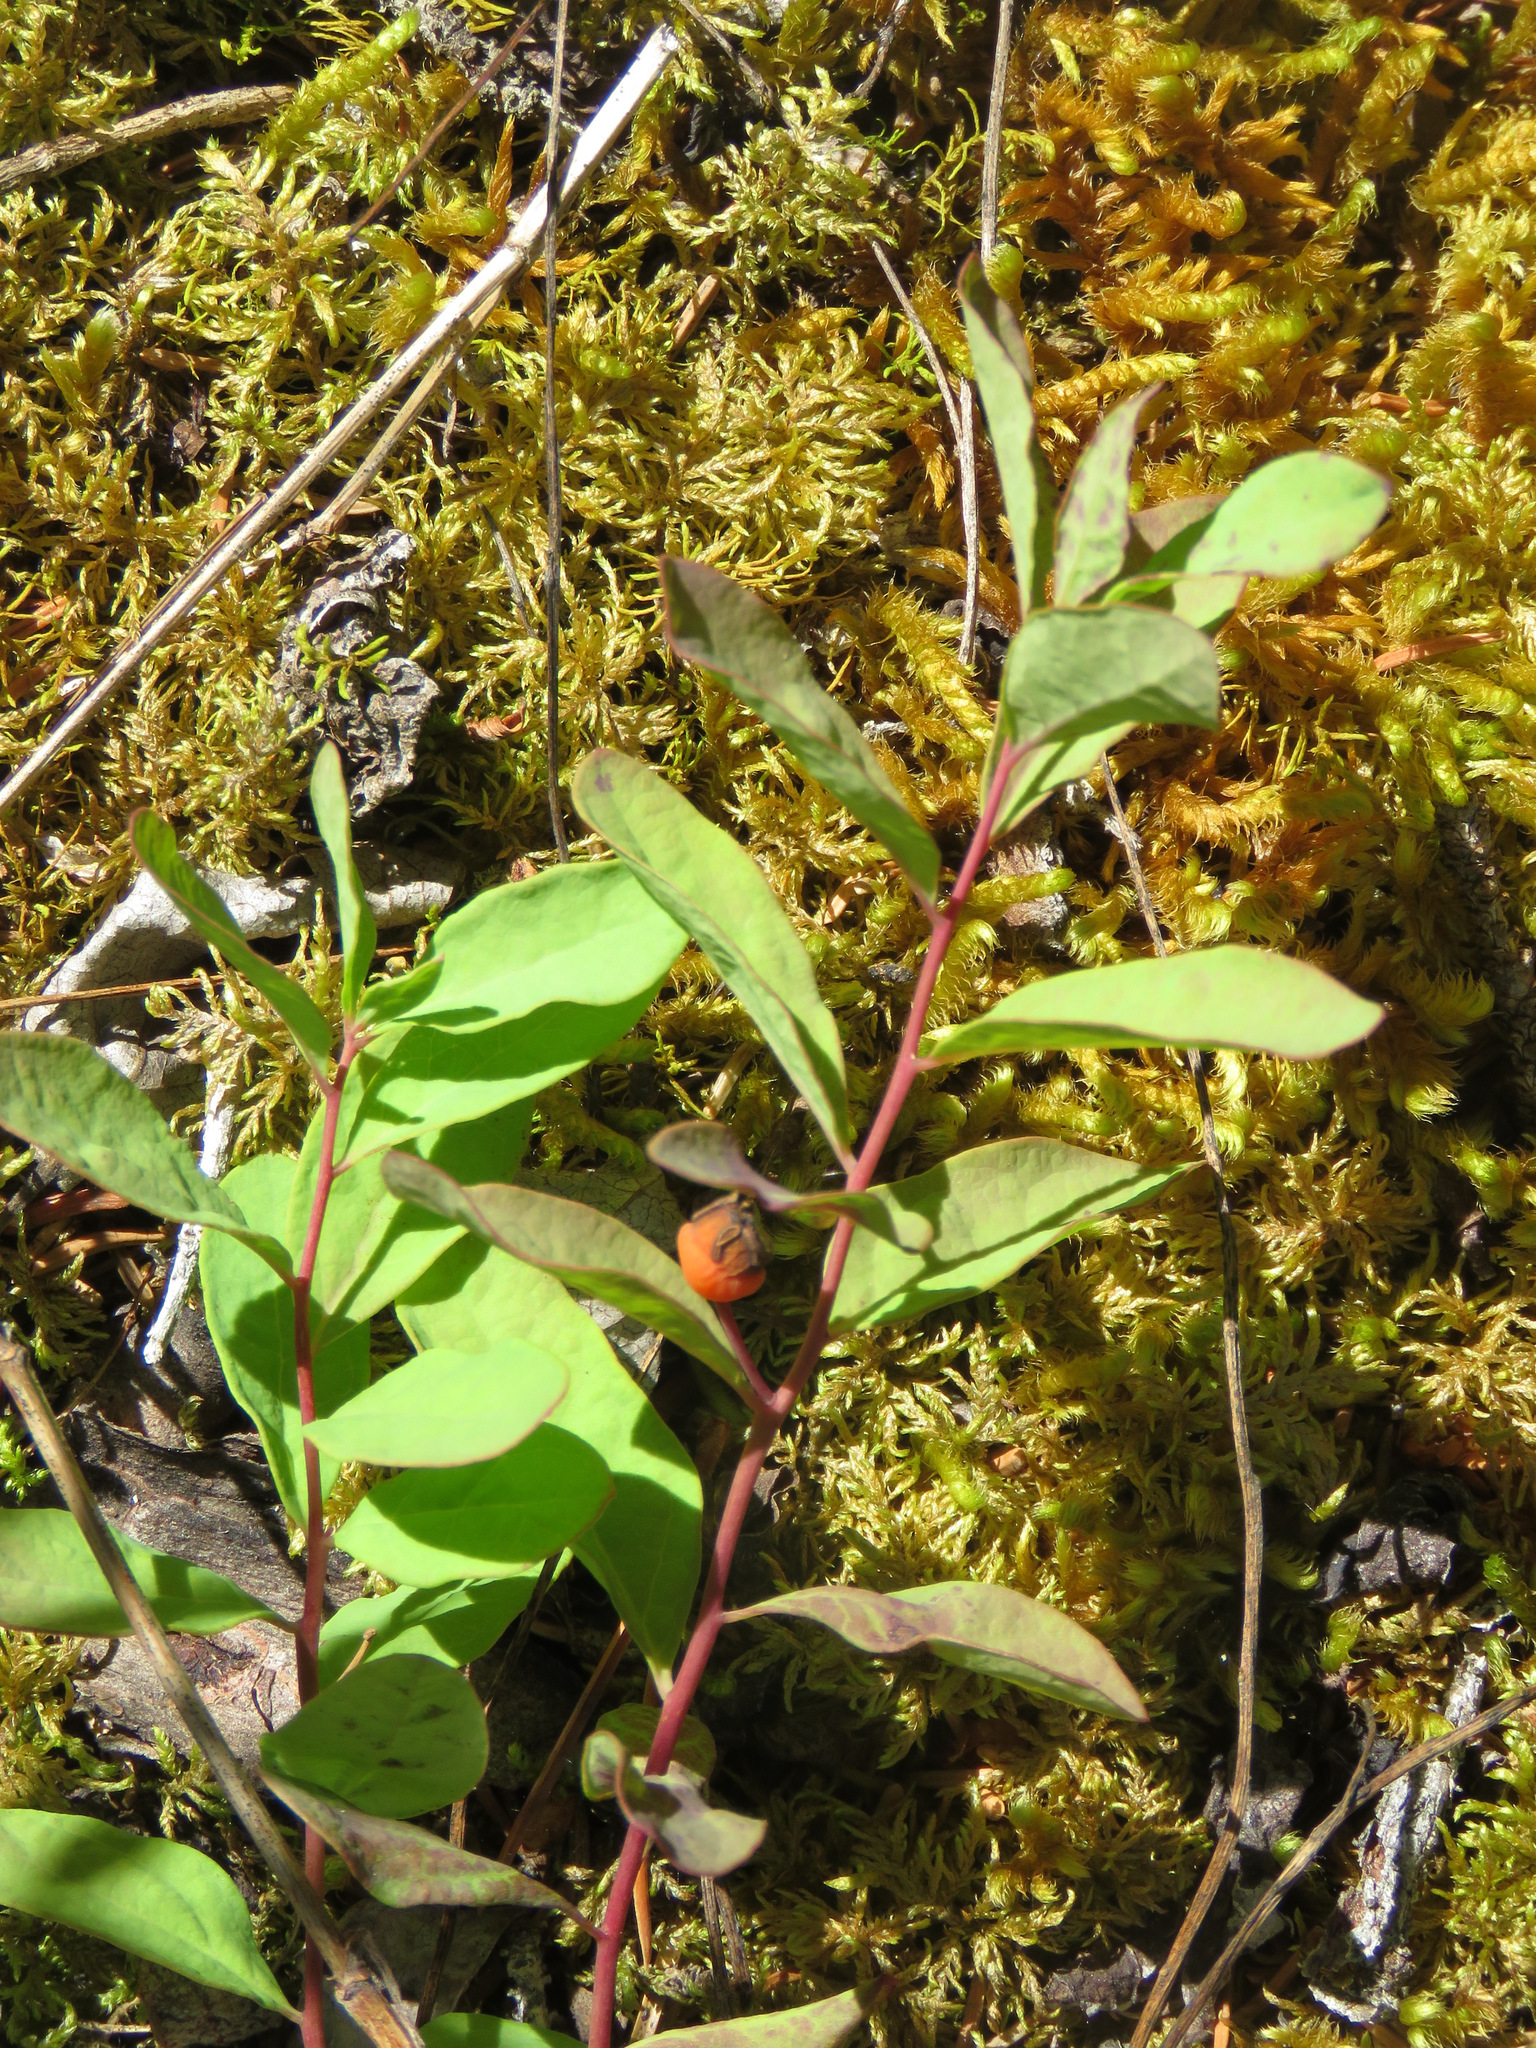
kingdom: Plantae
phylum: Tracheophyta
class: Magnoliopsida
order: Santalales
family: Comandraceae
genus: Geocaulon
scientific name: Geocaulon lividum
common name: Earthberry
